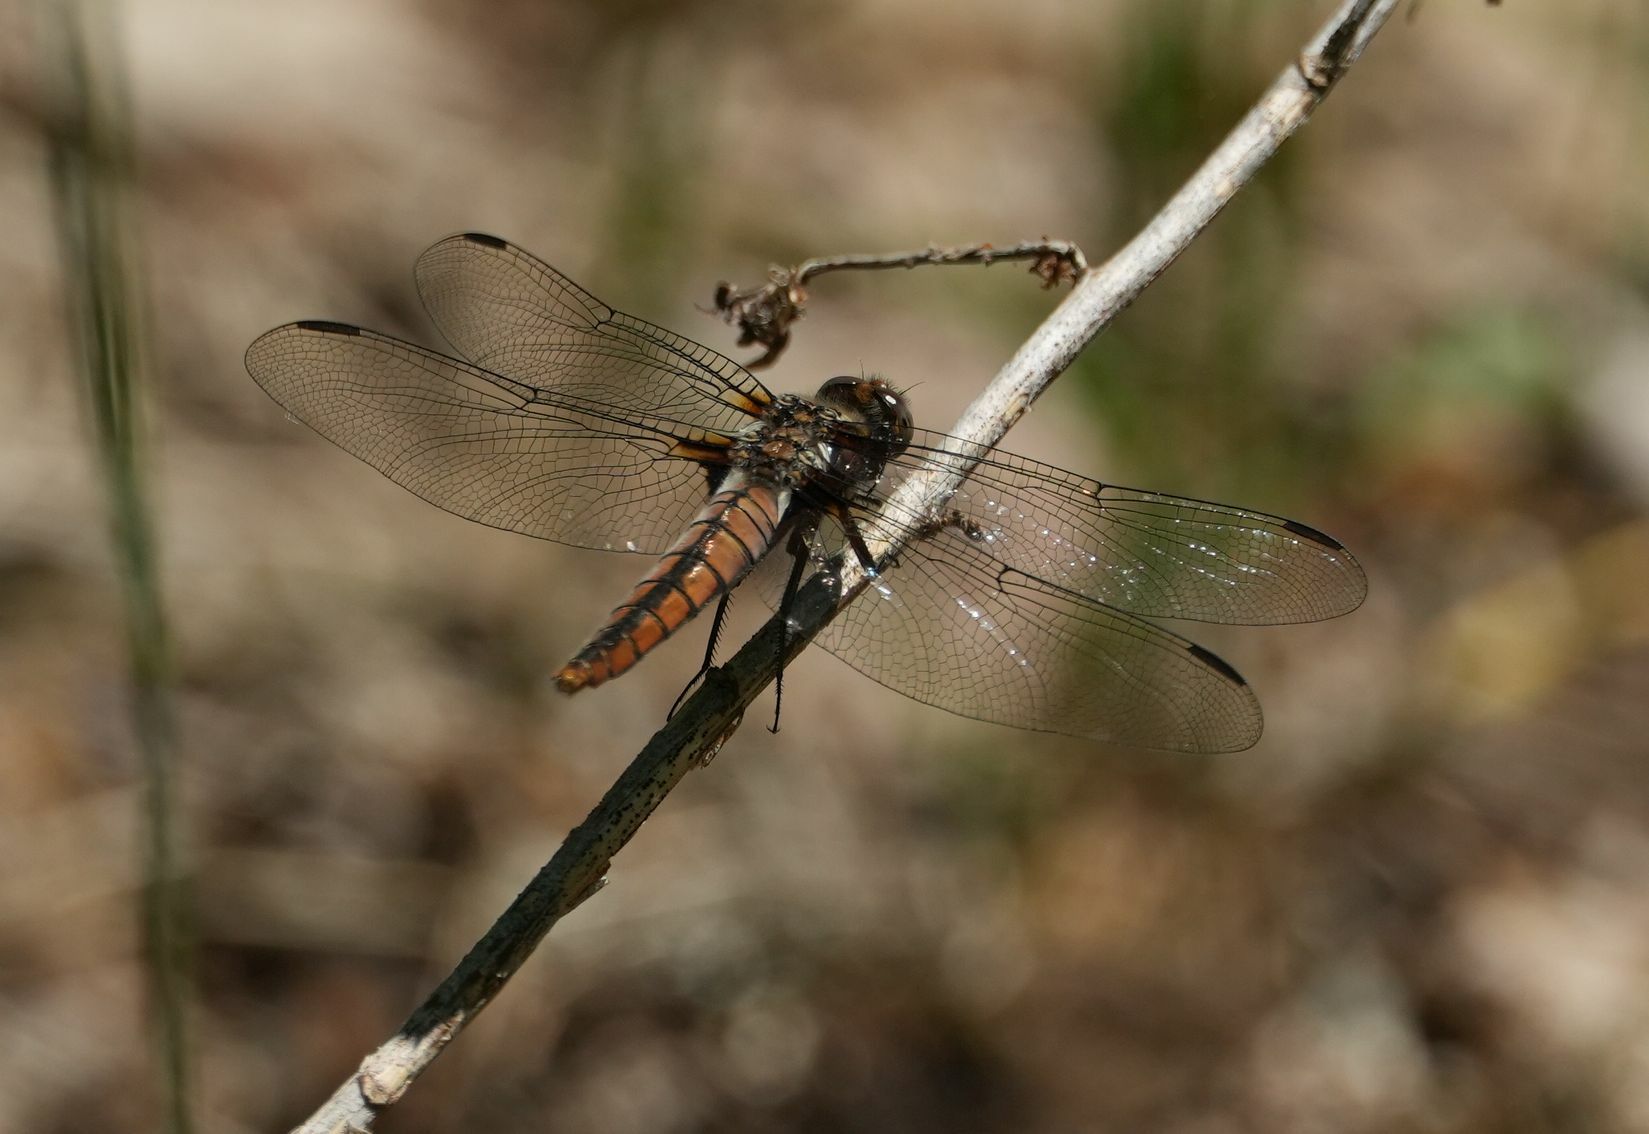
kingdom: Animalia
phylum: Arthropoda
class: Insecta
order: Odonata
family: Libellulidae
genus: Ladona
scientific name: Ladona julia
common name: Chalk-fronted corporal
